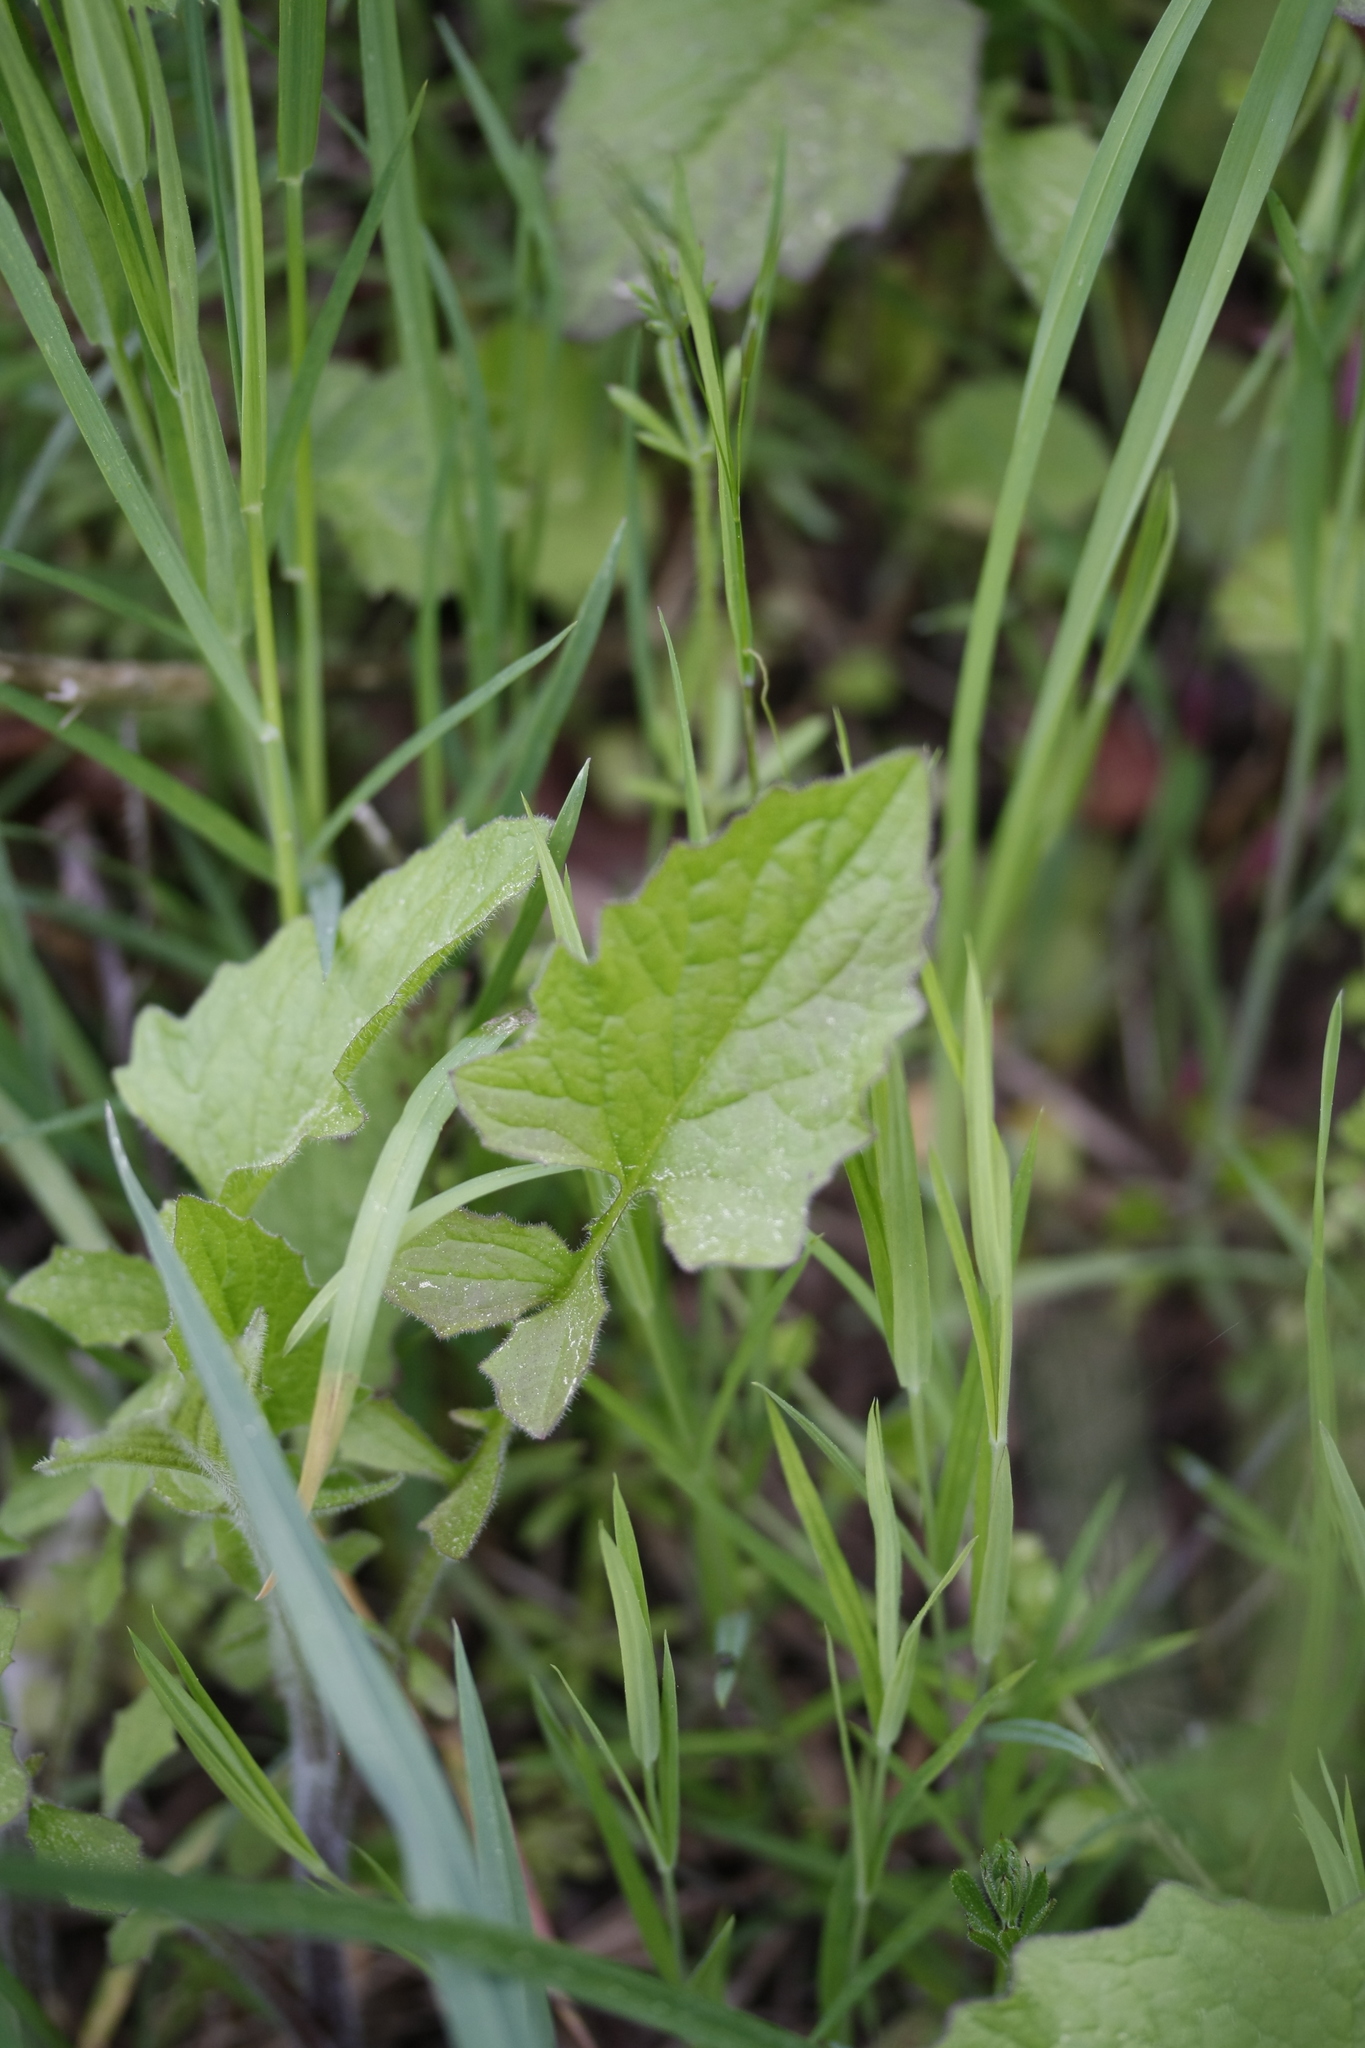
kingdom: Plantae
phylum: Tracheophyta
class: Magnoliopsida
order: Asterales
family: Asteraceae
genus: Lapsana
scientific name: Lapsana communis
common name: Nipplewort
